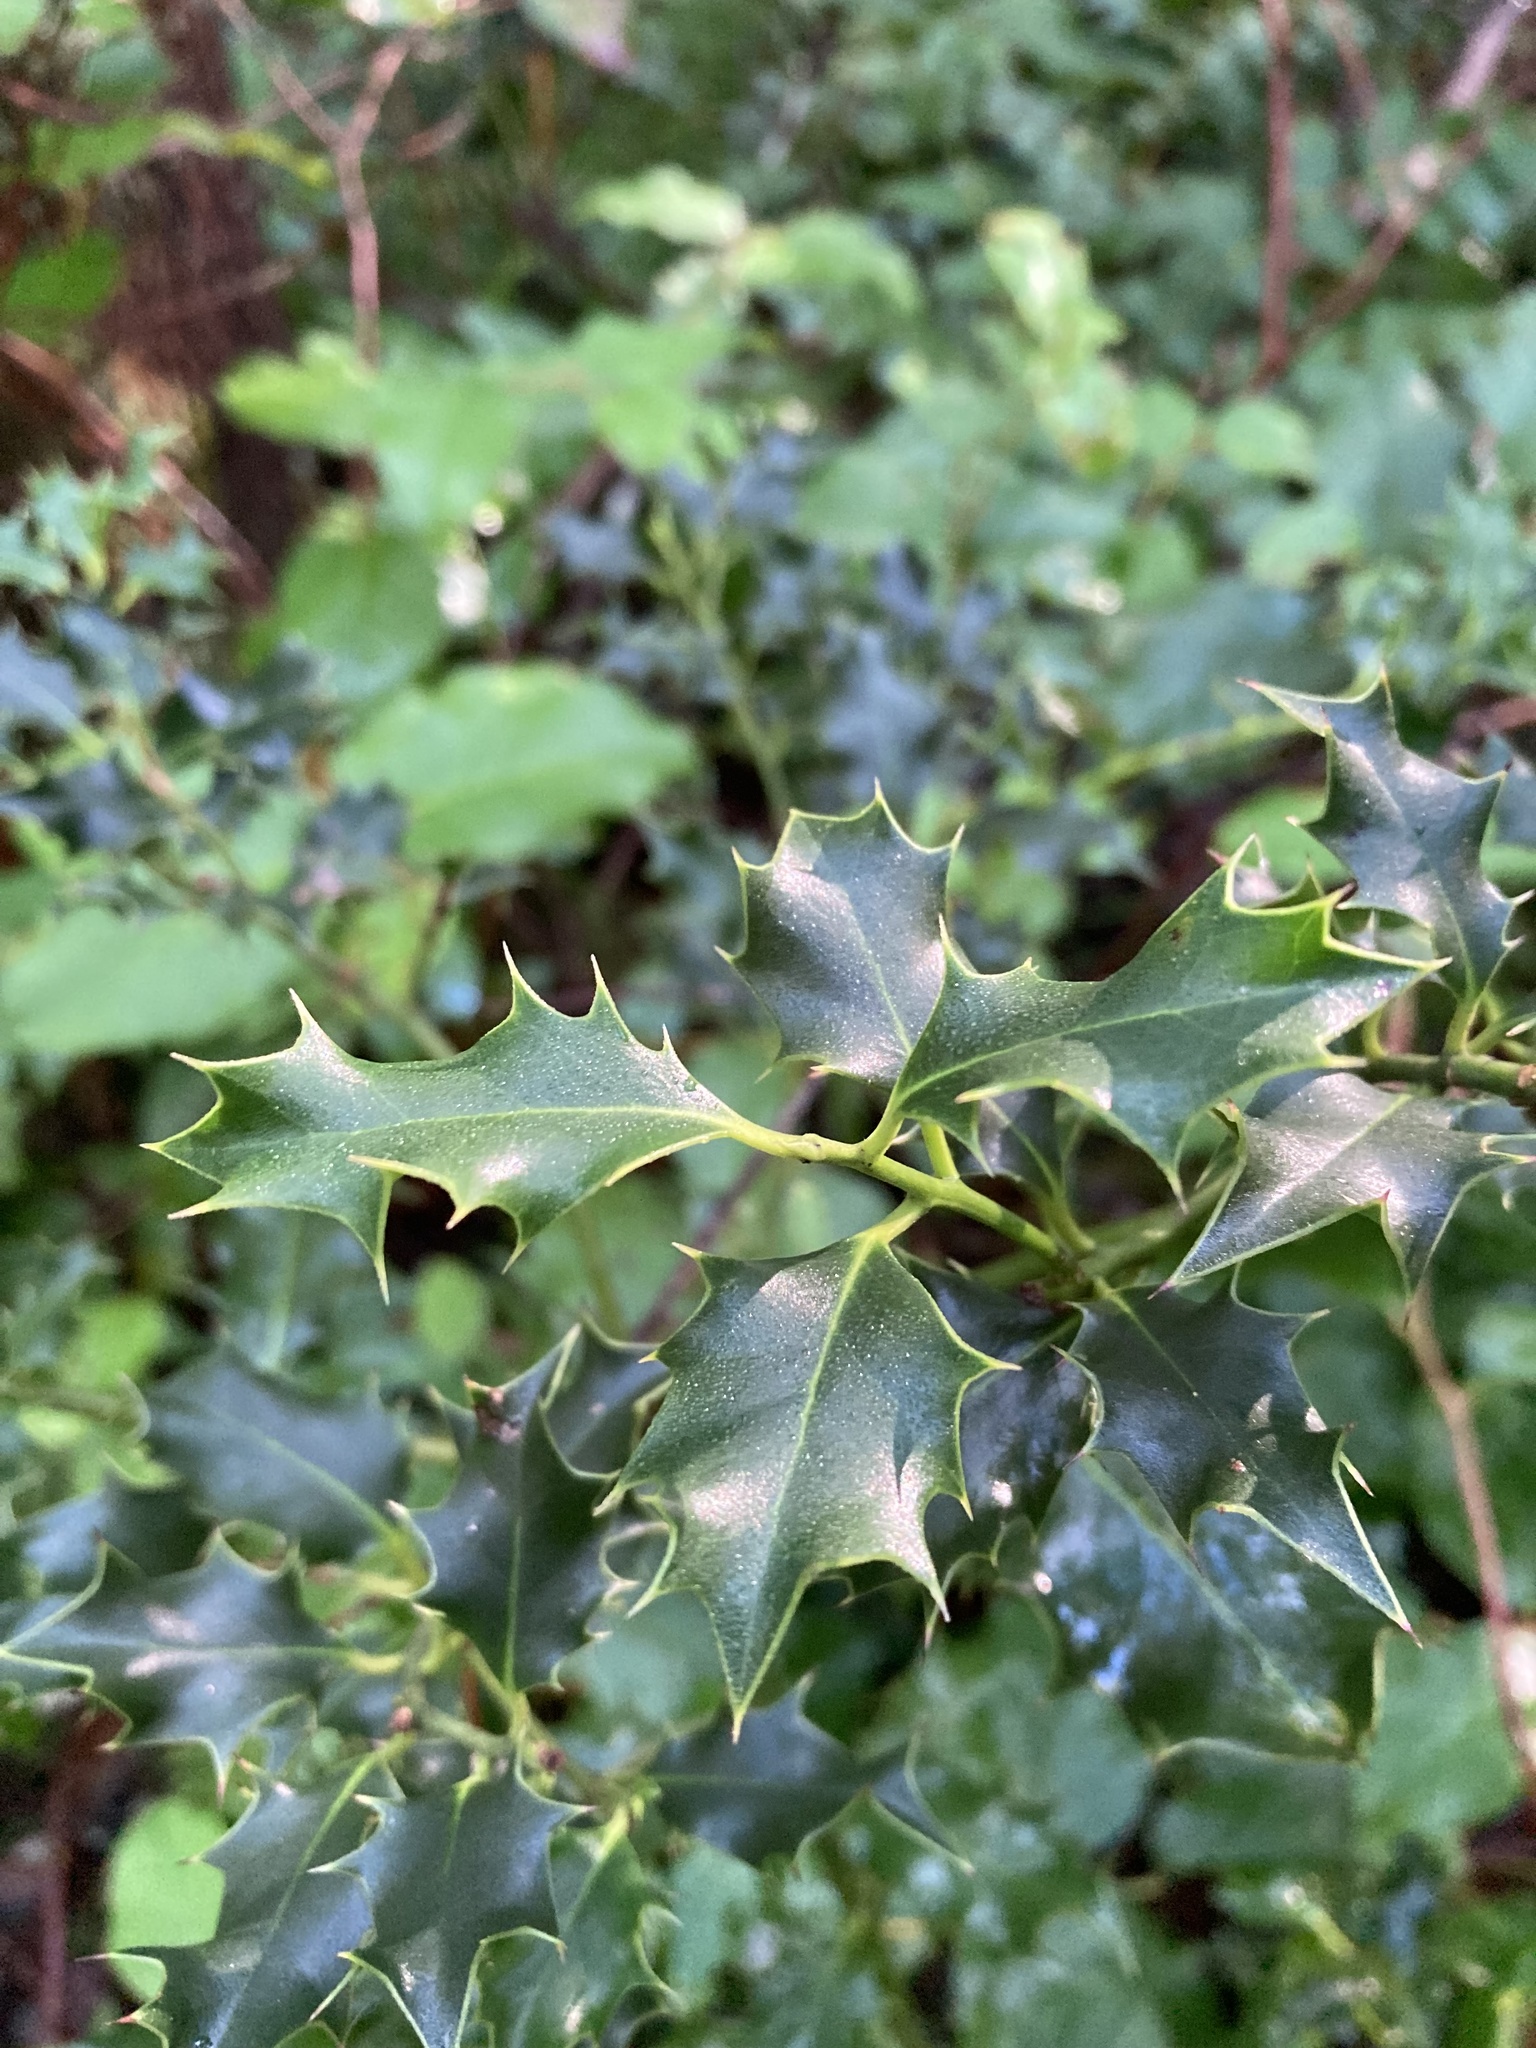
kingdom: Plantae
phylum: Tracheophyta
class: Magnoliopsida
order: Aquifoliales
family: Aquifoliaceae
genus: Ilex
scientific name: Ilex aquifolium
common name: English holly
